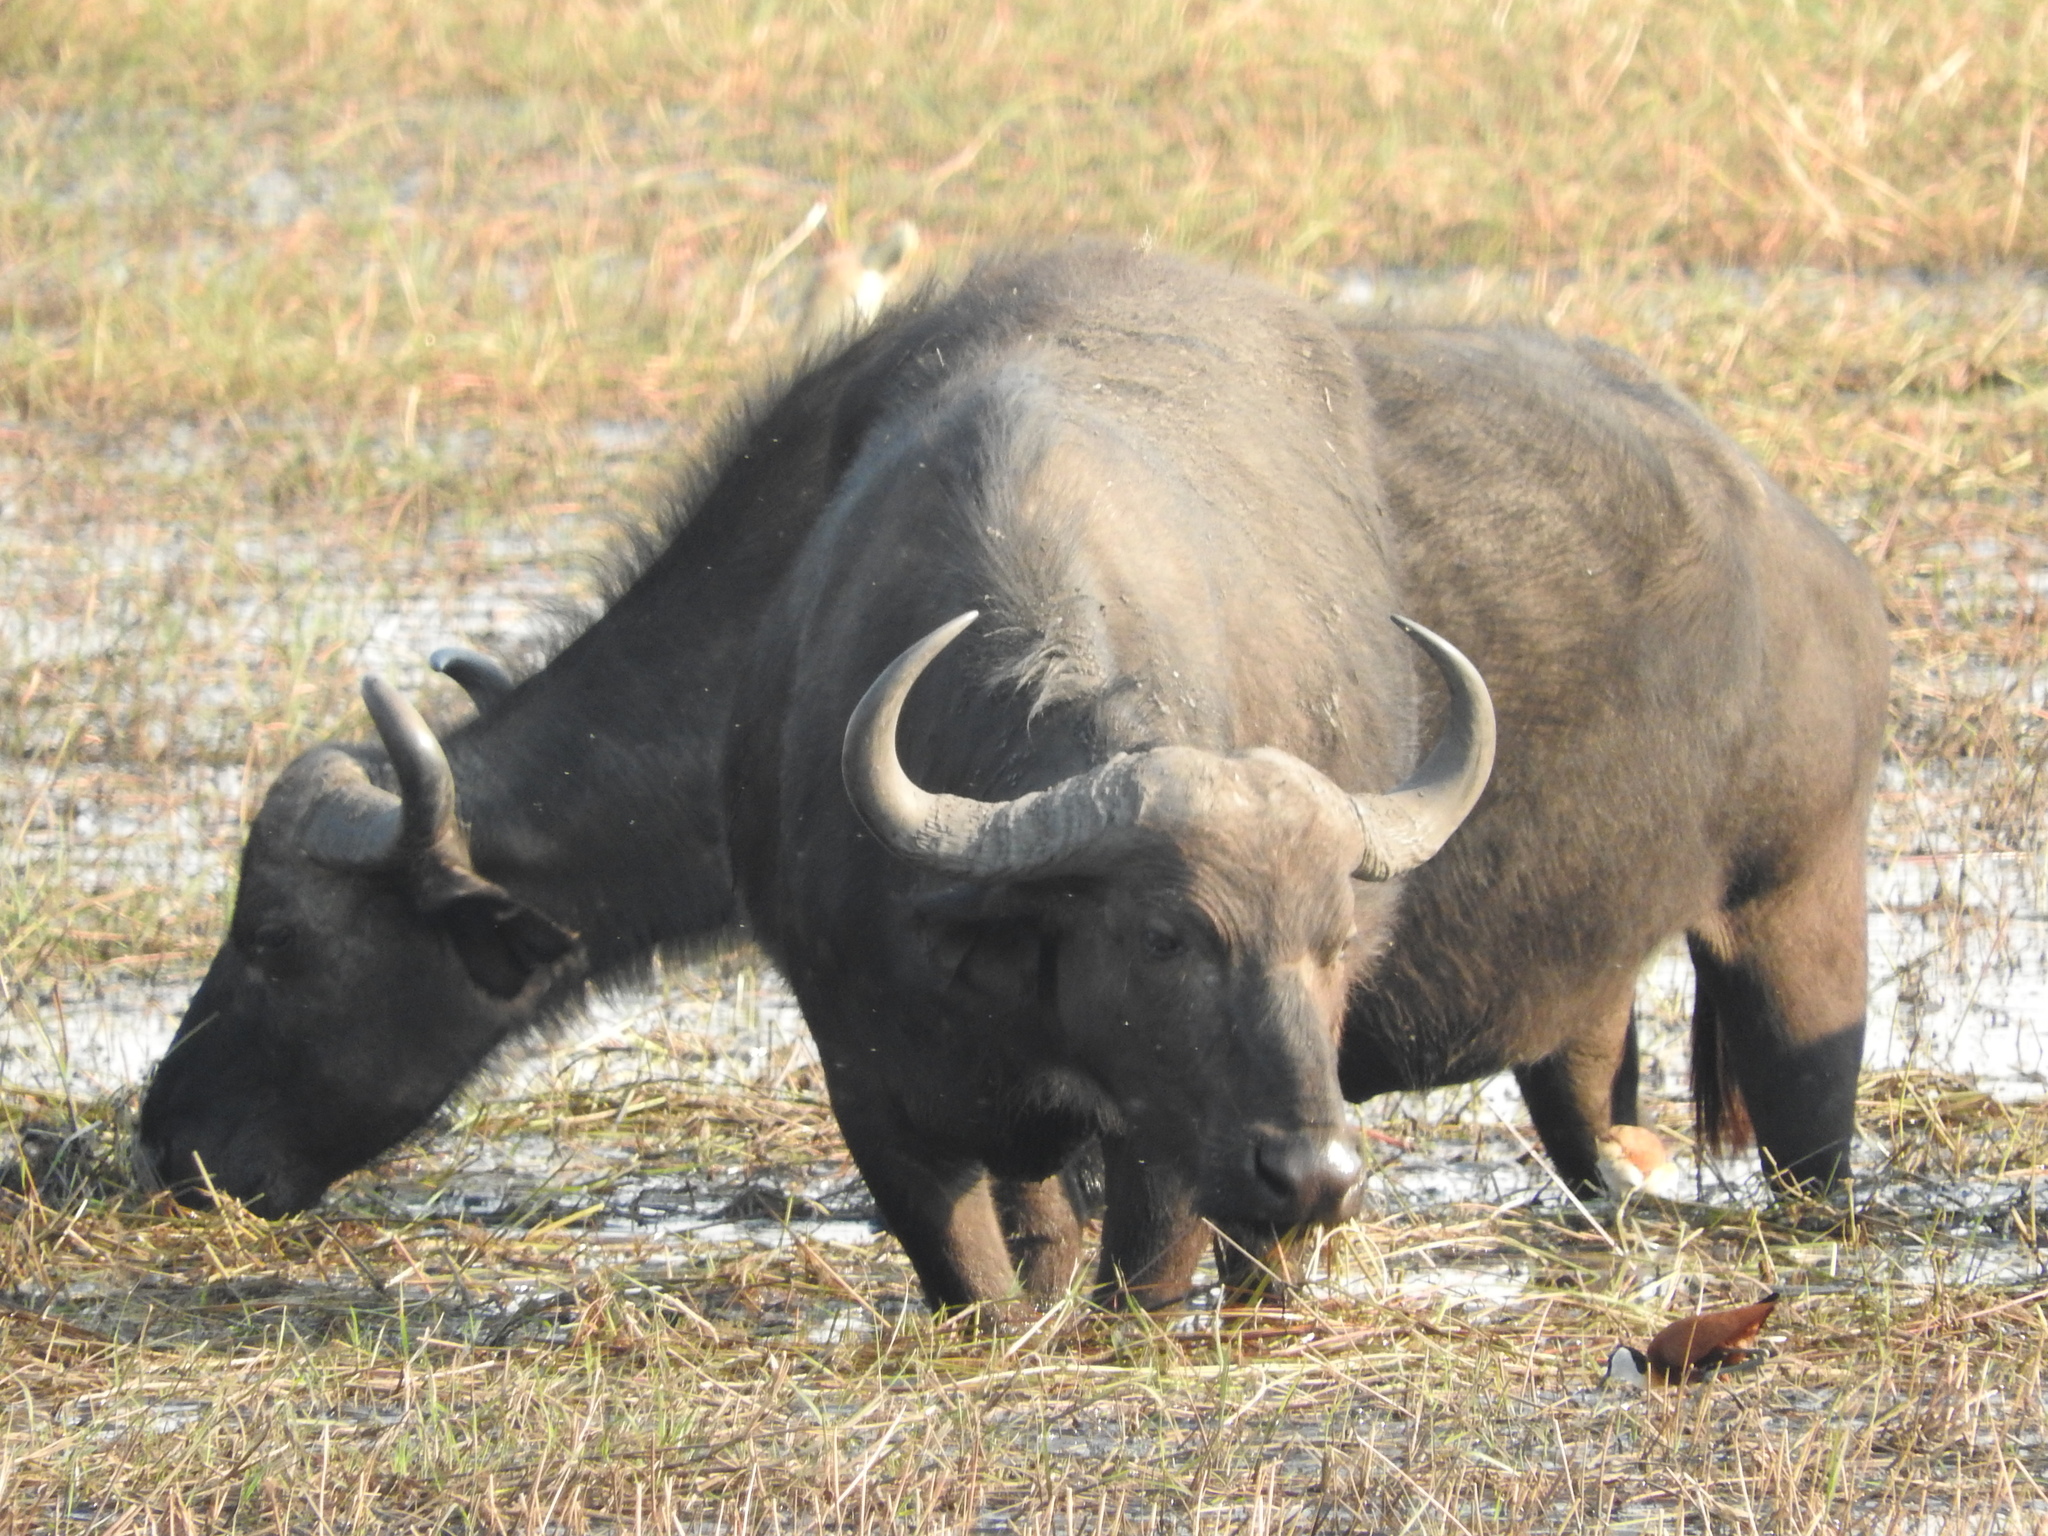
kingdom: Animalia
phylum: Chordata
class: Mammalia
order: Artiodactyla
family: Bovidae
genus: Syncerus
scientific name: Syncerus caffer
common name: African buffalo
